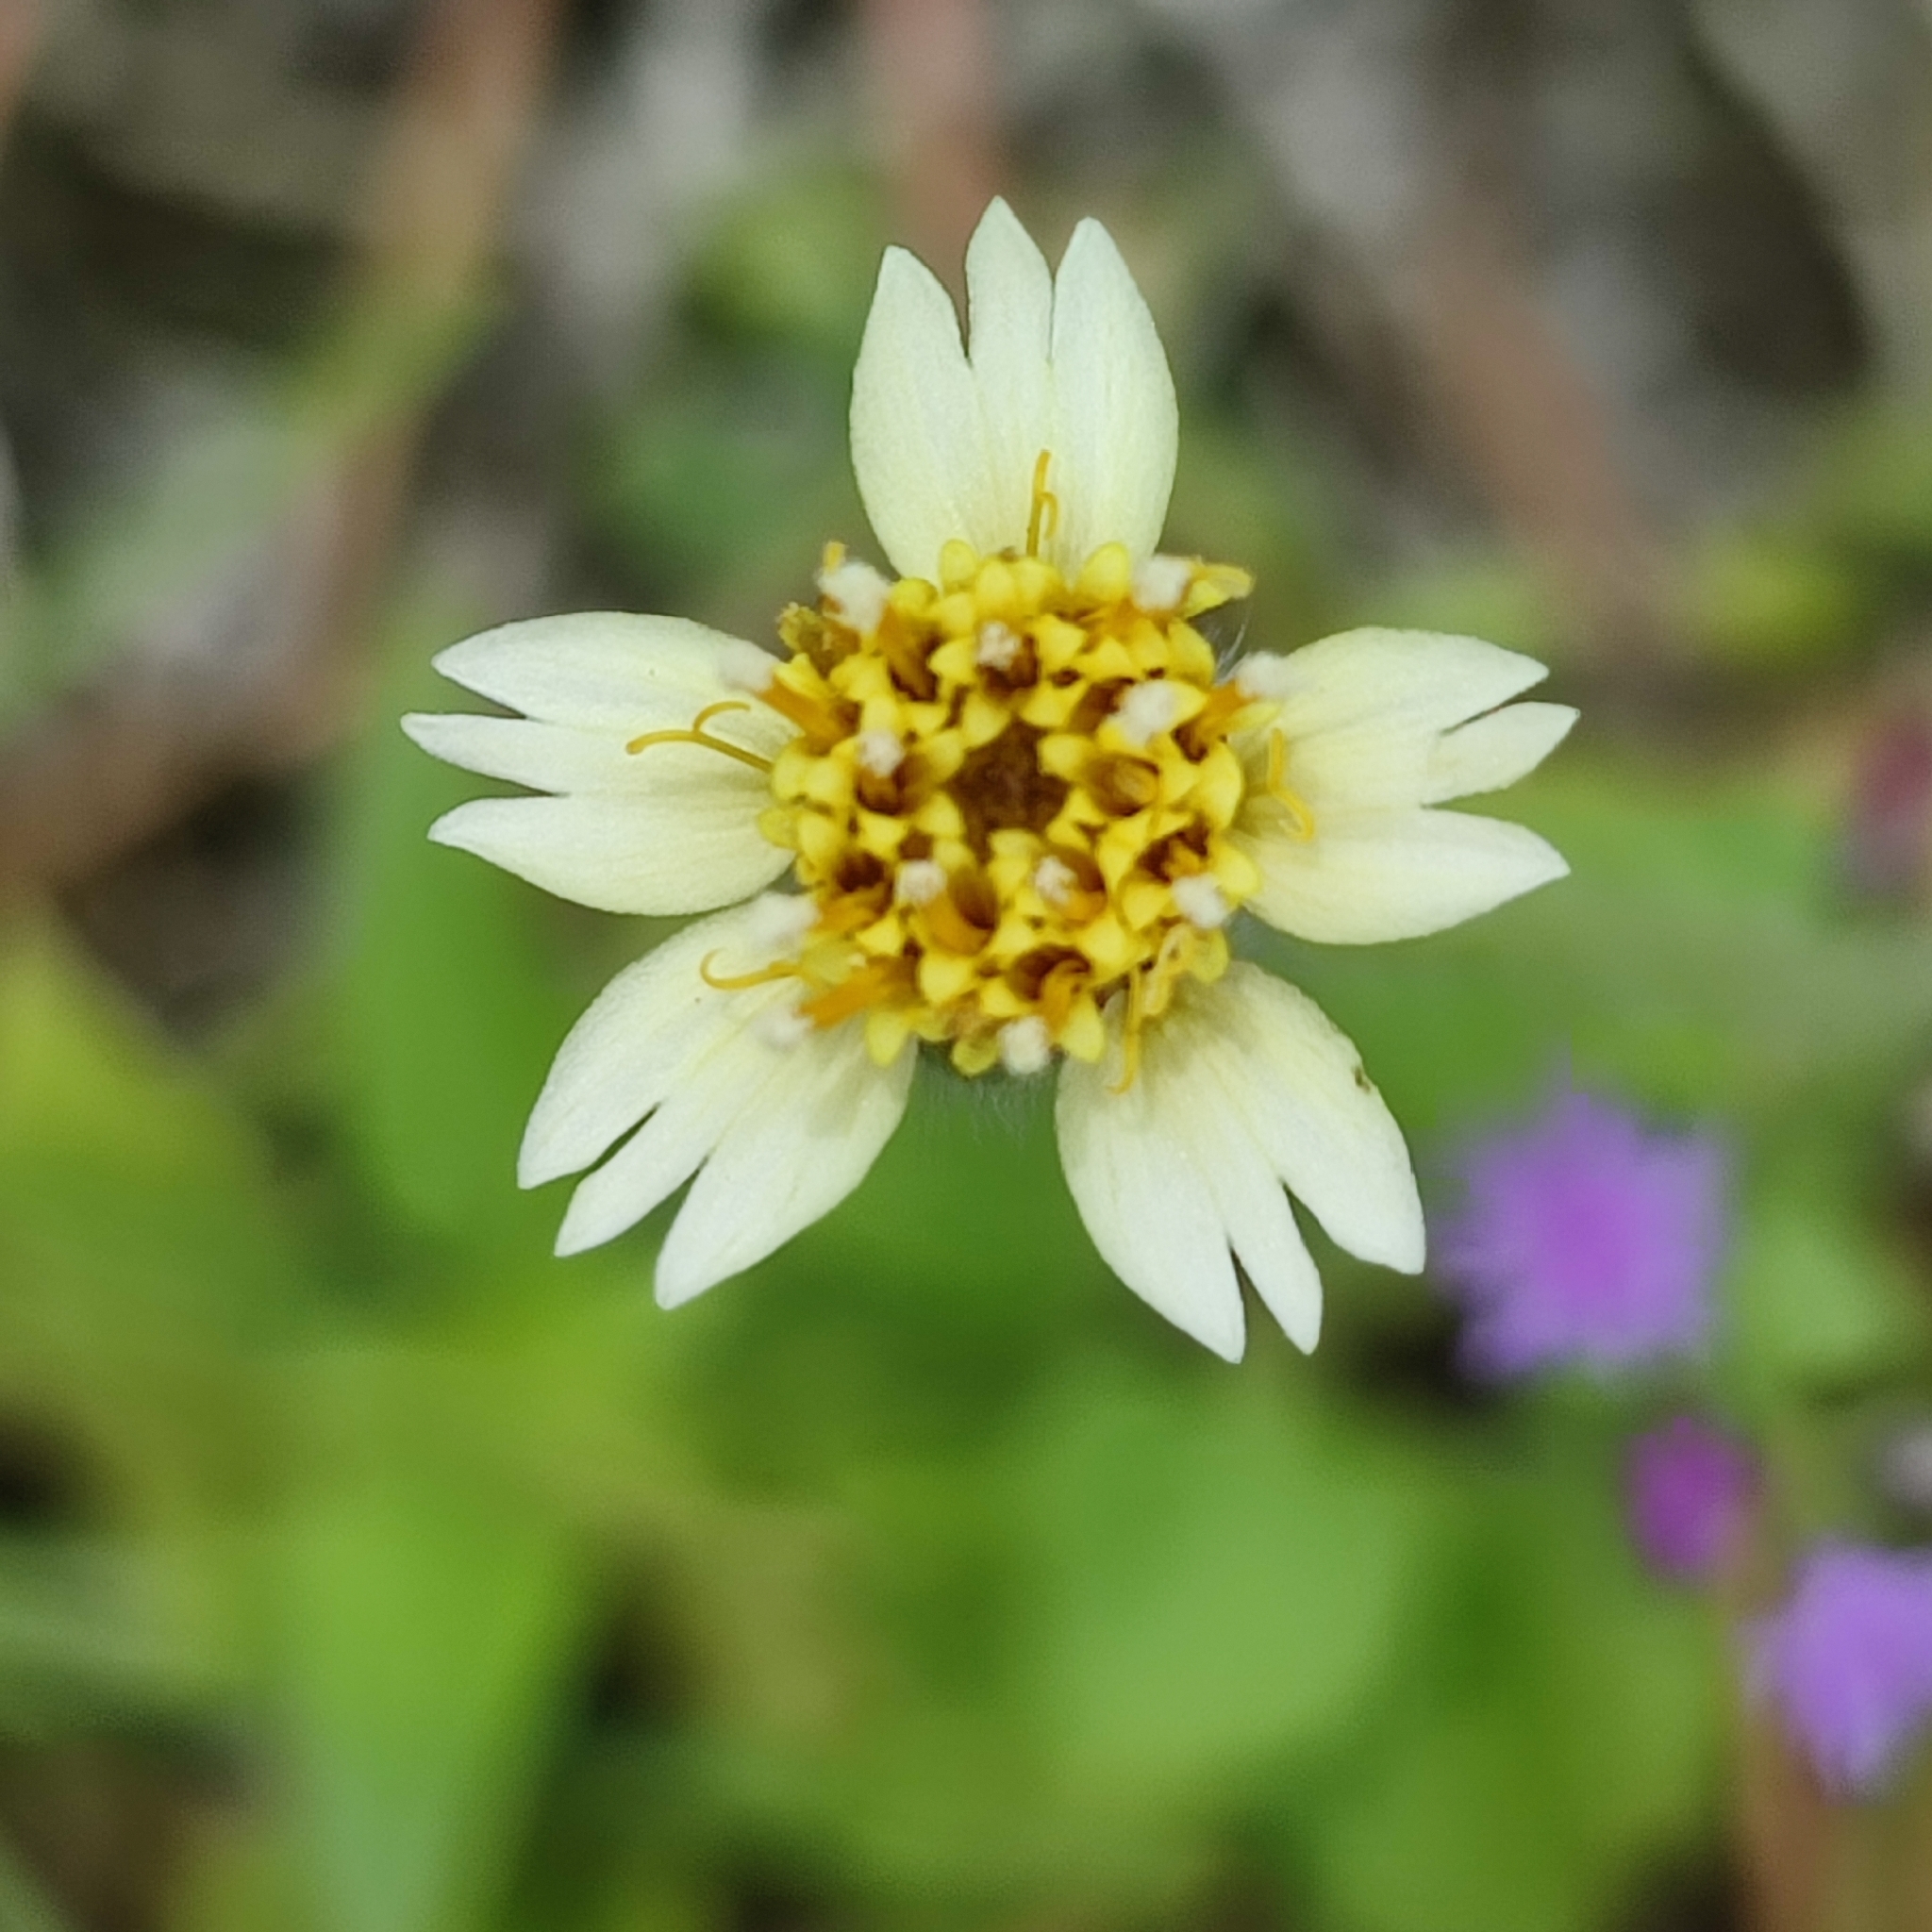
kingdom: Plantae
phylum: Tracheophyta
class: Magnoliopsida
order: Asterales
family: Asteraceae
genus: Tridax
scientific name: Tridax procumbens
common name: Coatbuttons
